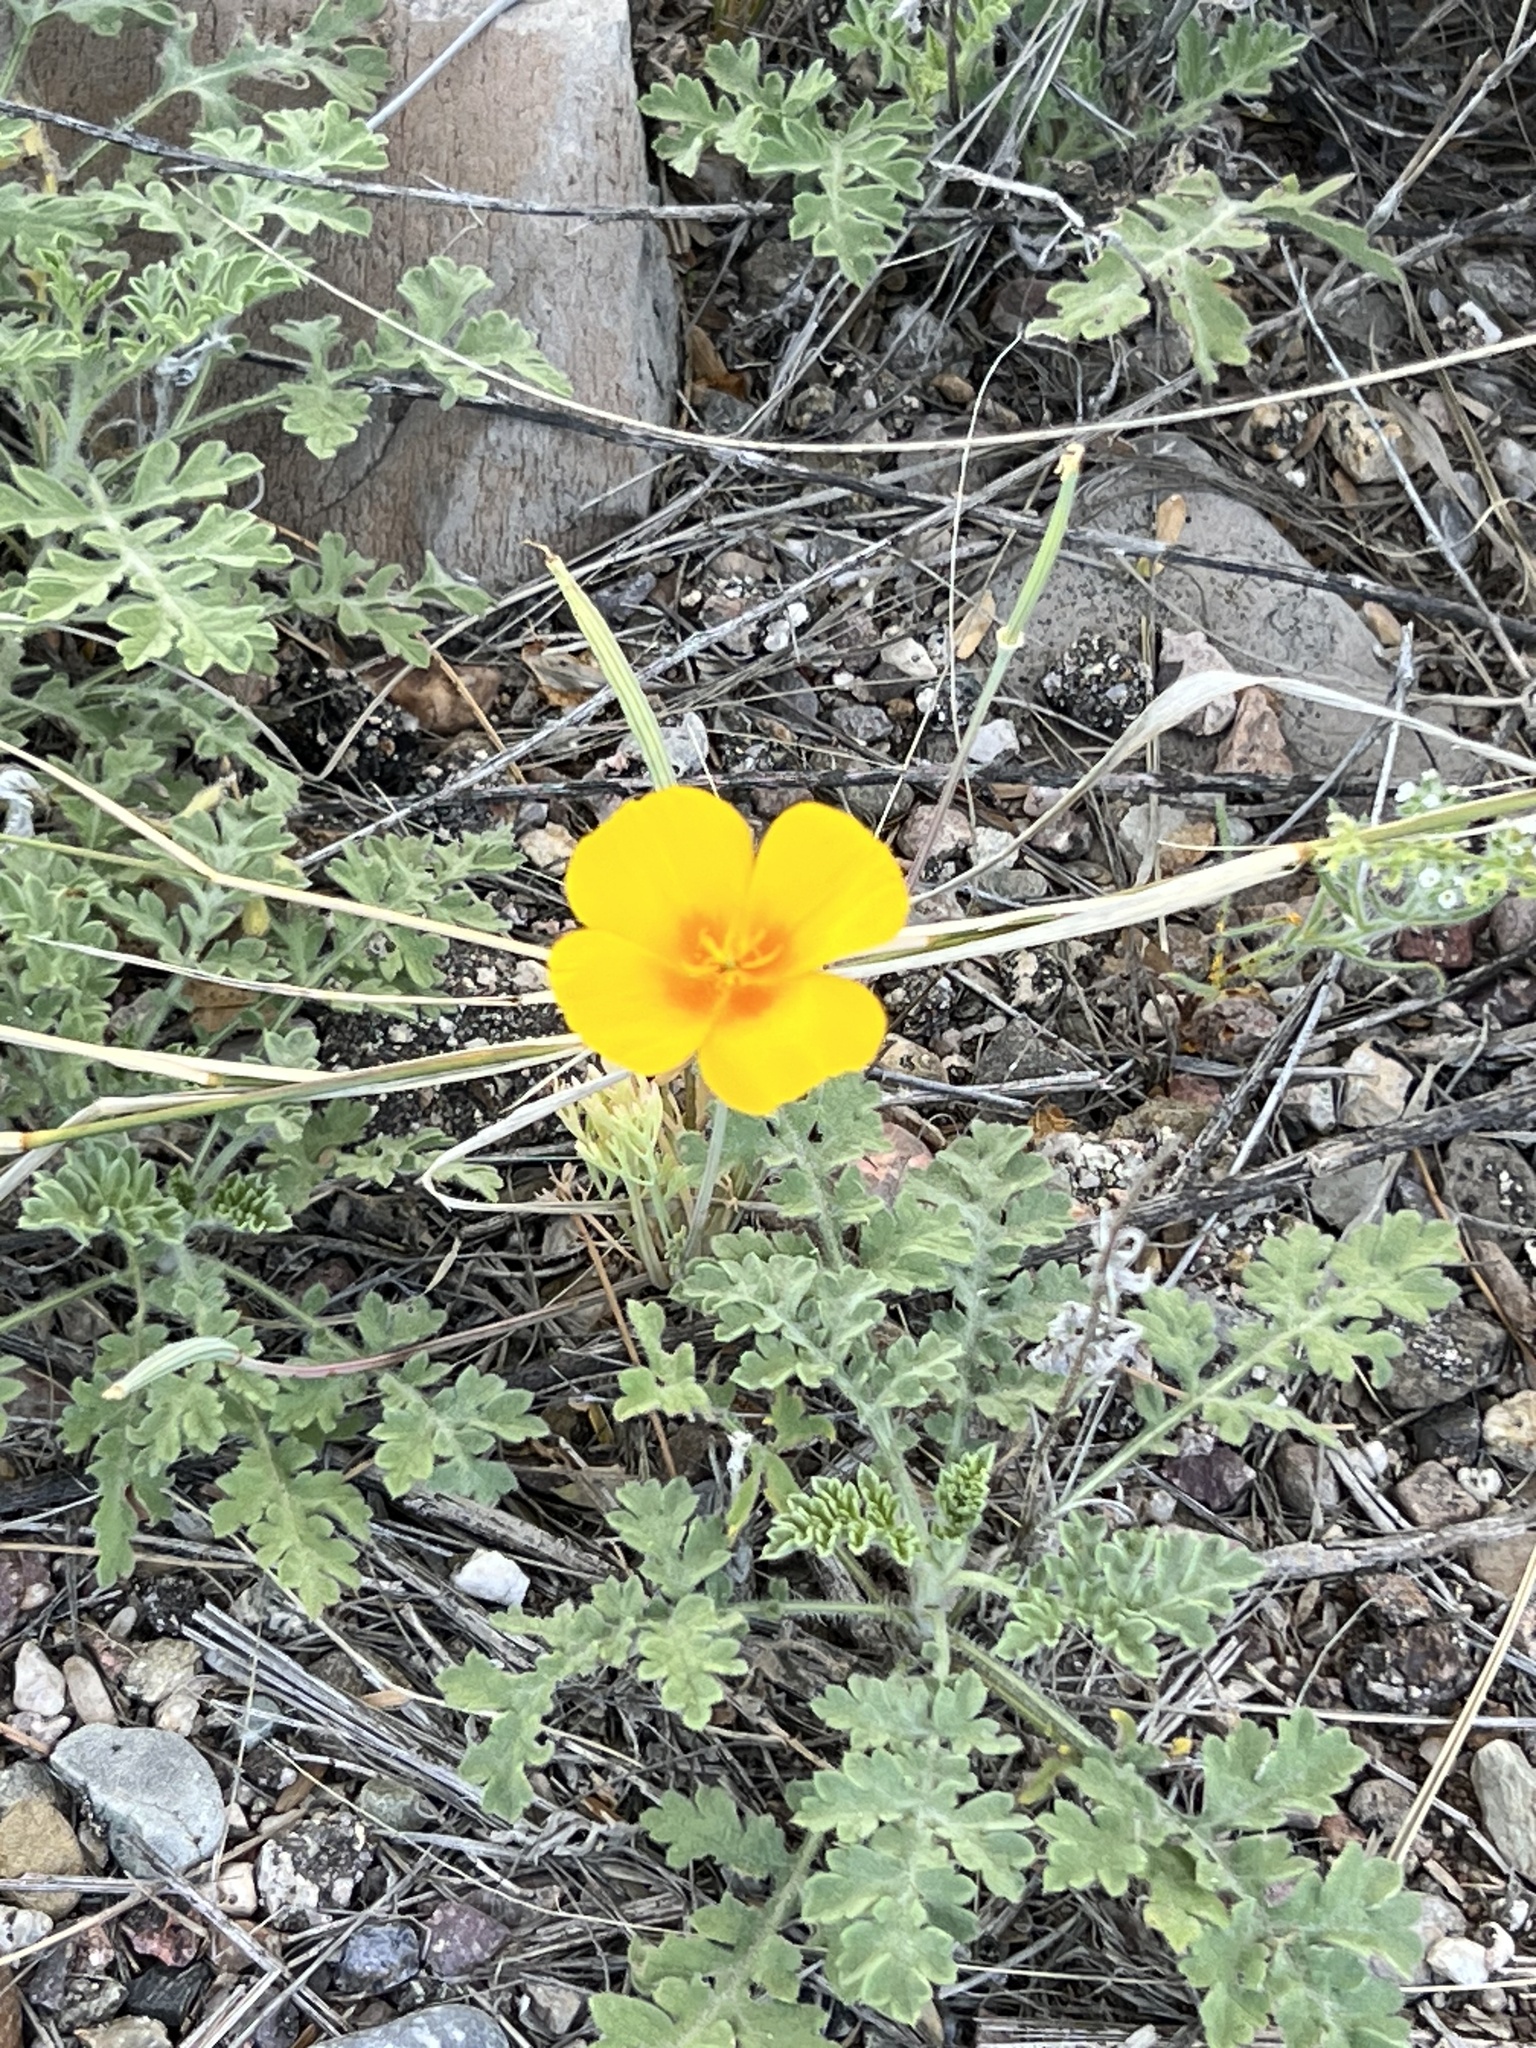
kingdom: Plantae
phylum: Tracheophyta
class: Magnoliopsida
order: Ranunculales
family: Papaveraceae
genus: Eschscholzia
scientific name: Eschscholzia californica
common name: California poppy
